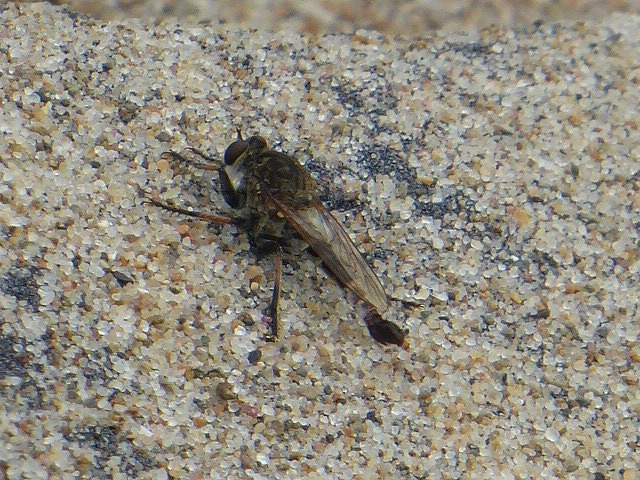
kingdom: Animalia
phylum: Arthropoda
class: Insecta
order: Diptera
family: Asilidae
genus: Efferia
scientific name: Efferia albibarbis
